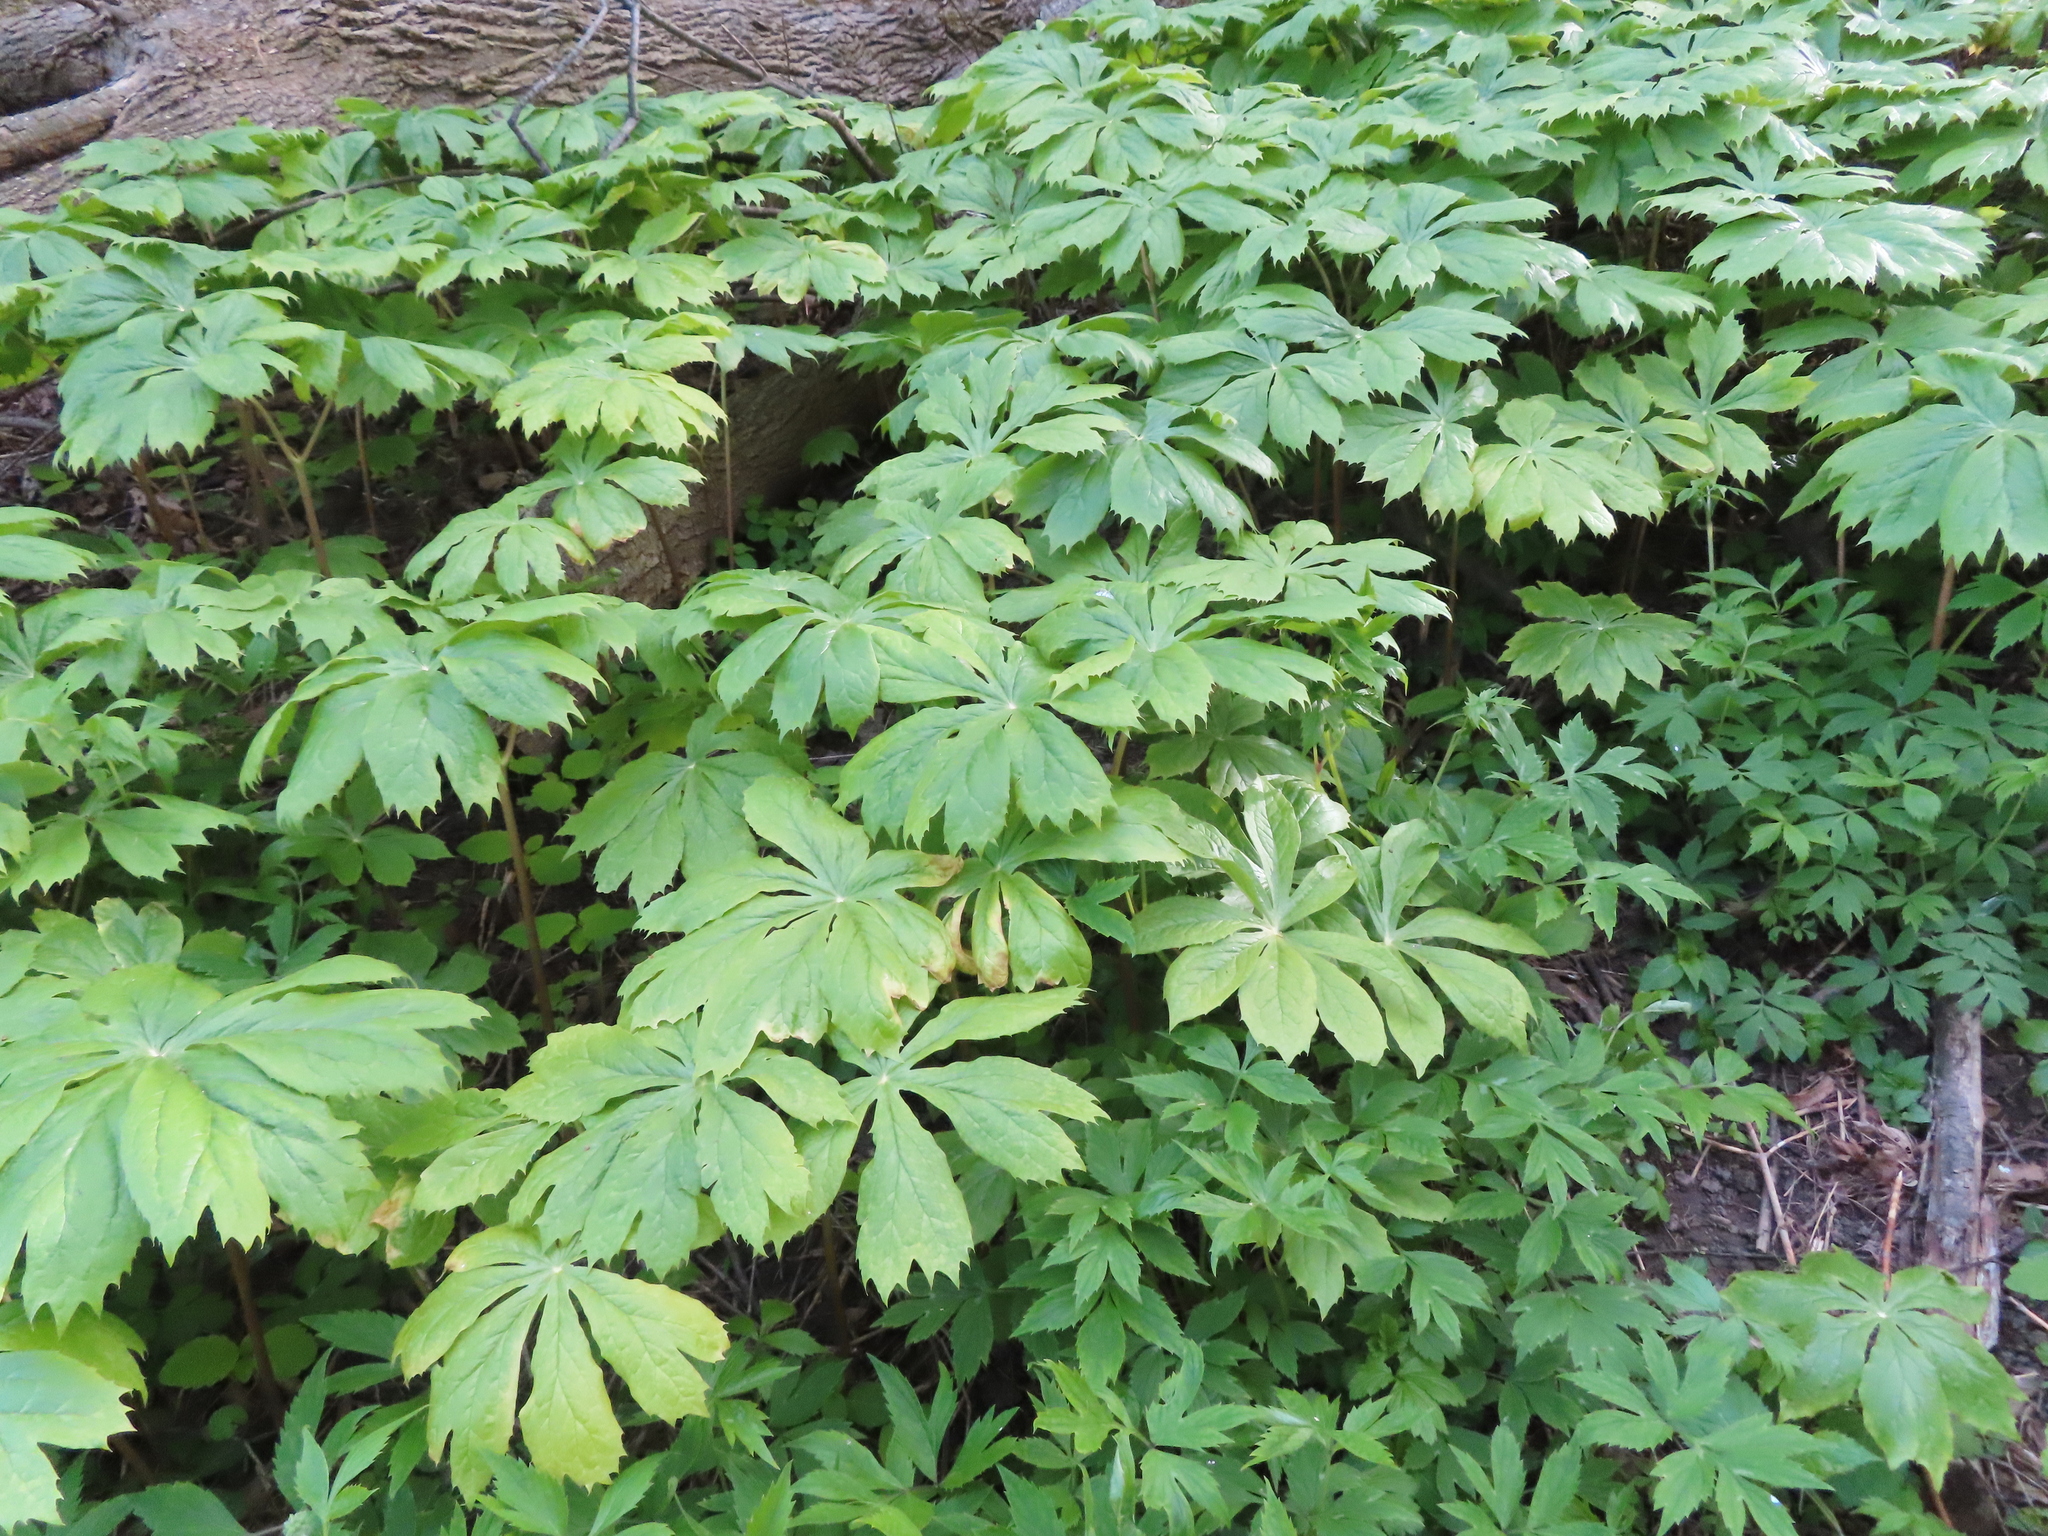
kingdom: Plantae
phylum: Tracheophyta
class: Magnoliopsida
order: Ranunculales
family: Berberidaceae
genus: Podophyllum
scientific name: Podophyllum peltatum
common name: Wild mandrake
